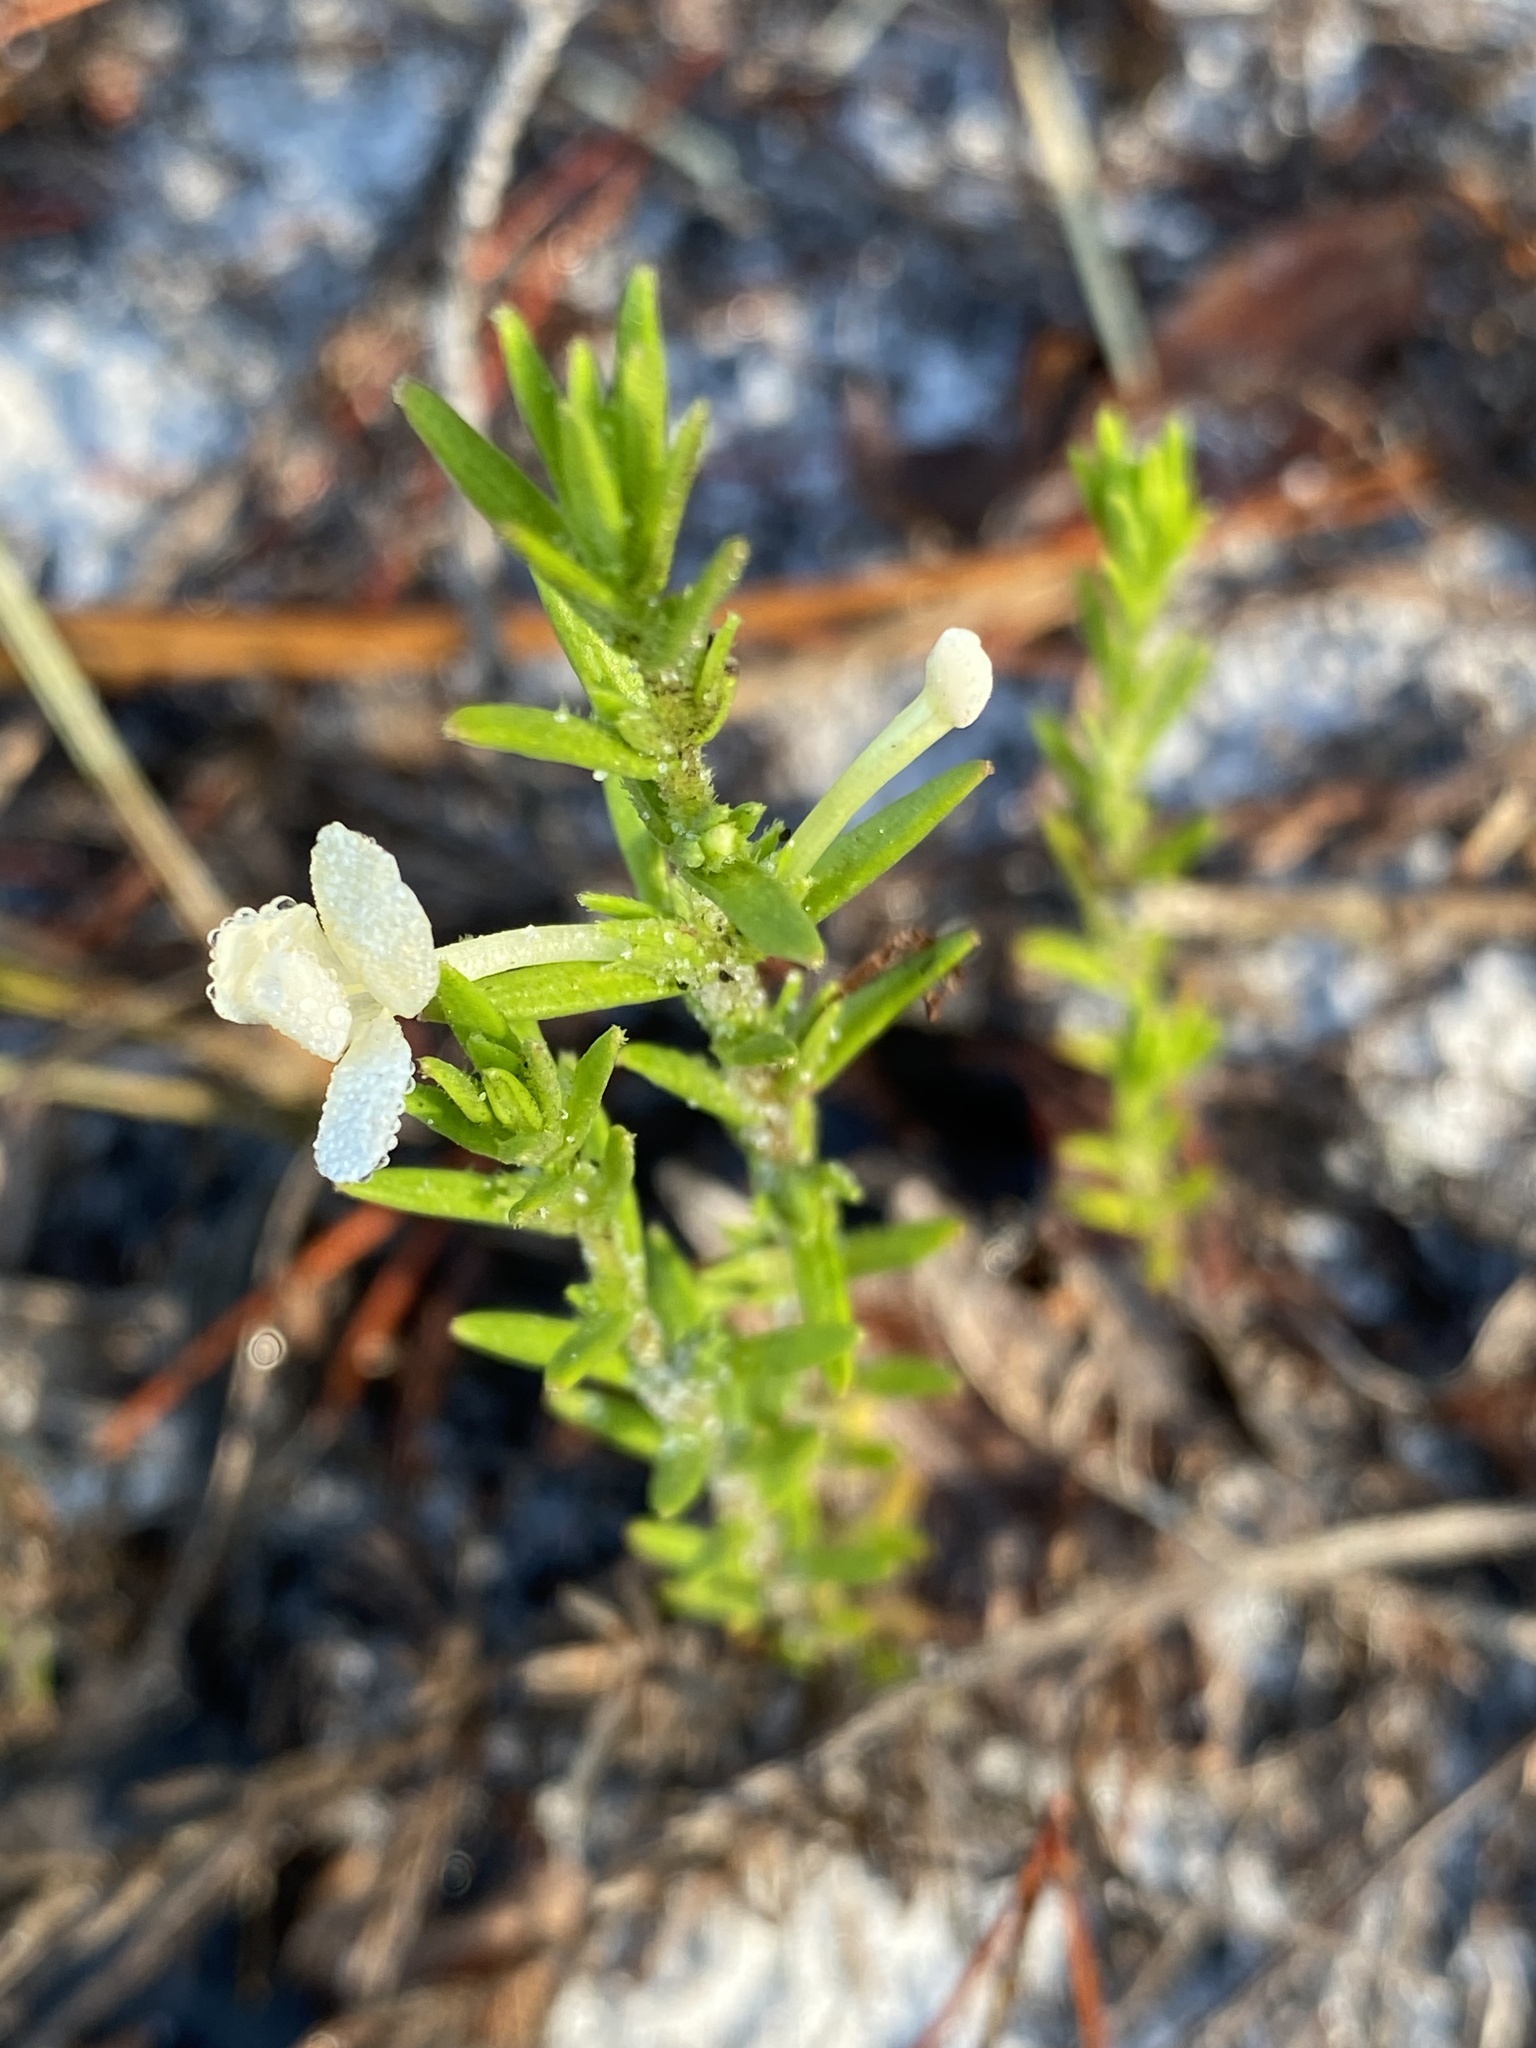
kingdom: Plantae
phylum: Tracheophyta
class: Magnoliopsida
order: Lamiales
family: Plantaginaceae
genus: Gratiola
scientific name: Gratiola hispida
